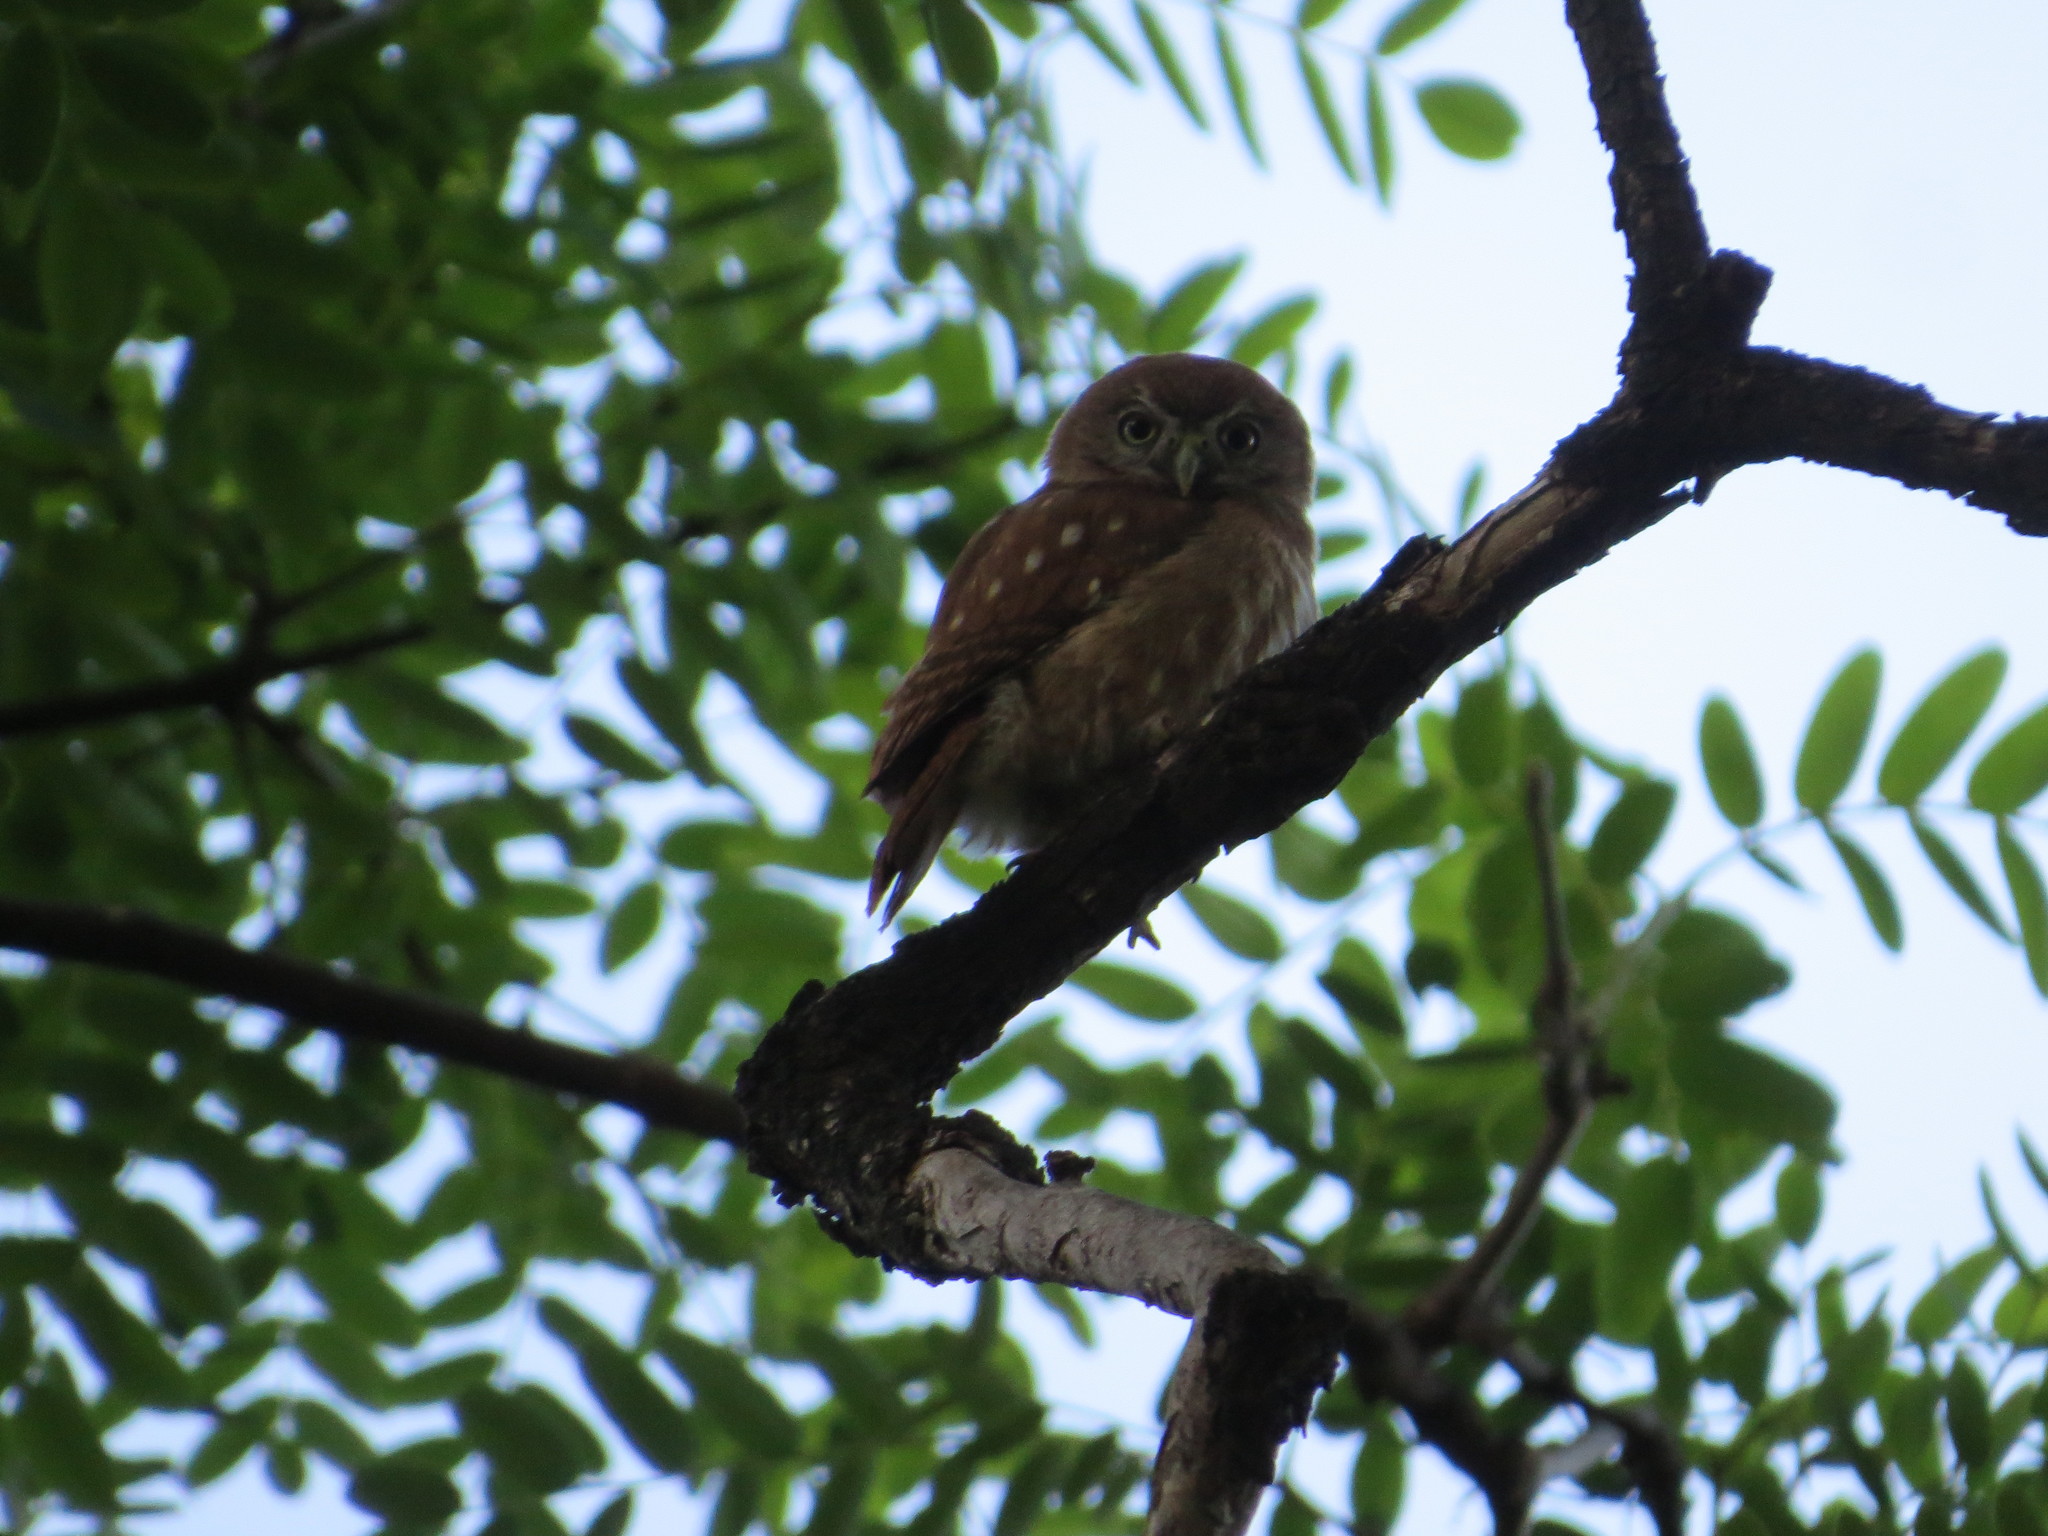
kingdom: Animalia
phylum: Chordata
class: Aves
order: Strigiformes
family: Strigidae
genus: Glaucidium
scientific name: Glaucidium brasilianum
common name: Ferruginous pygmy-owl
